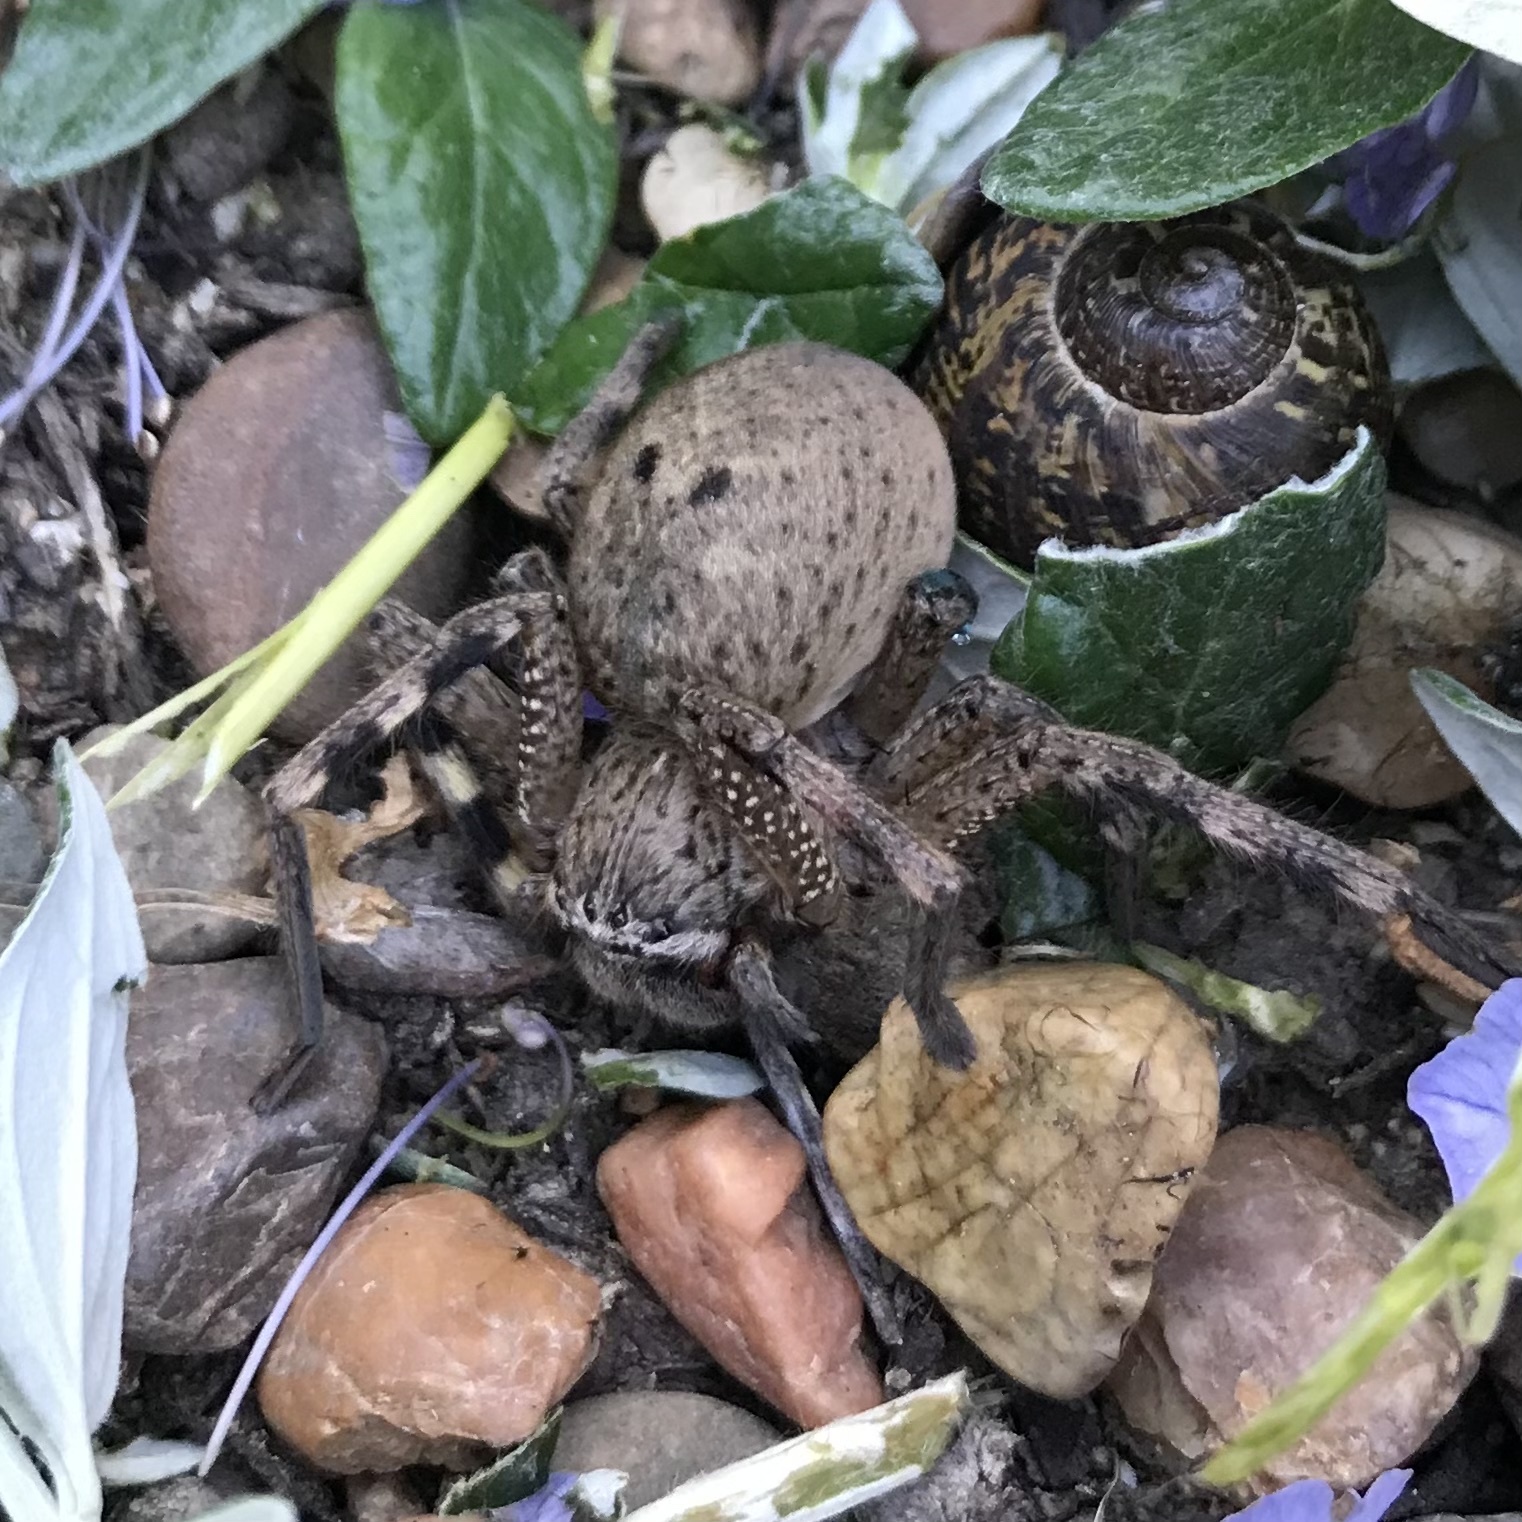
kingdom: Animalia
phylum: Arthropoda
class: Arachnida
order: Araneae
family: Sparassidae
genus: Neosparassus
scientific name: Neosparassus calligaster
